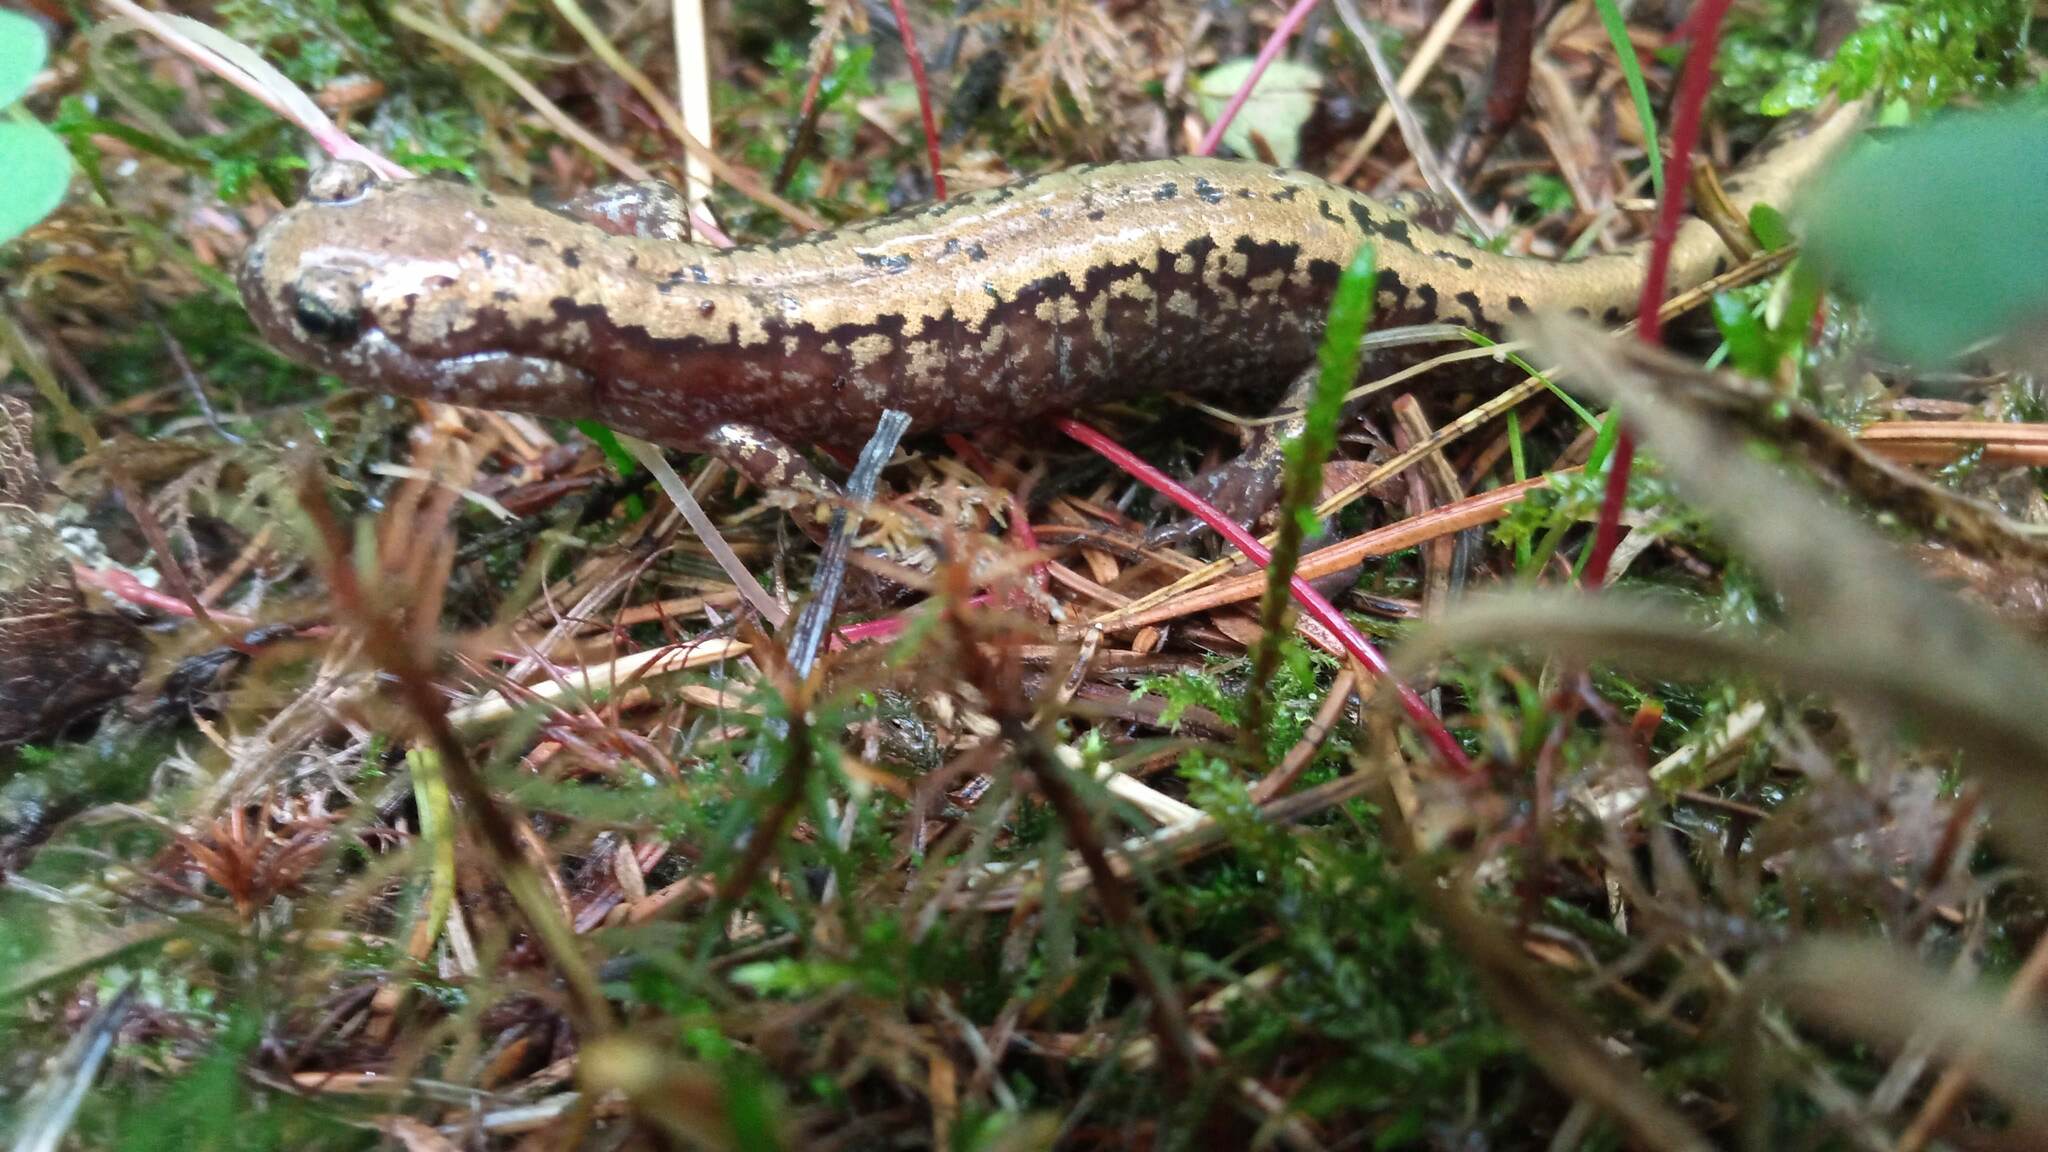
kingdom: Animalia
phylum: Chordata
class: Amphibia
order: Caudata
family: Hynobiidae
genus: Salamandrella
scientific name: Salamandrella keyserlingii
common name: Dybowski's salamander
